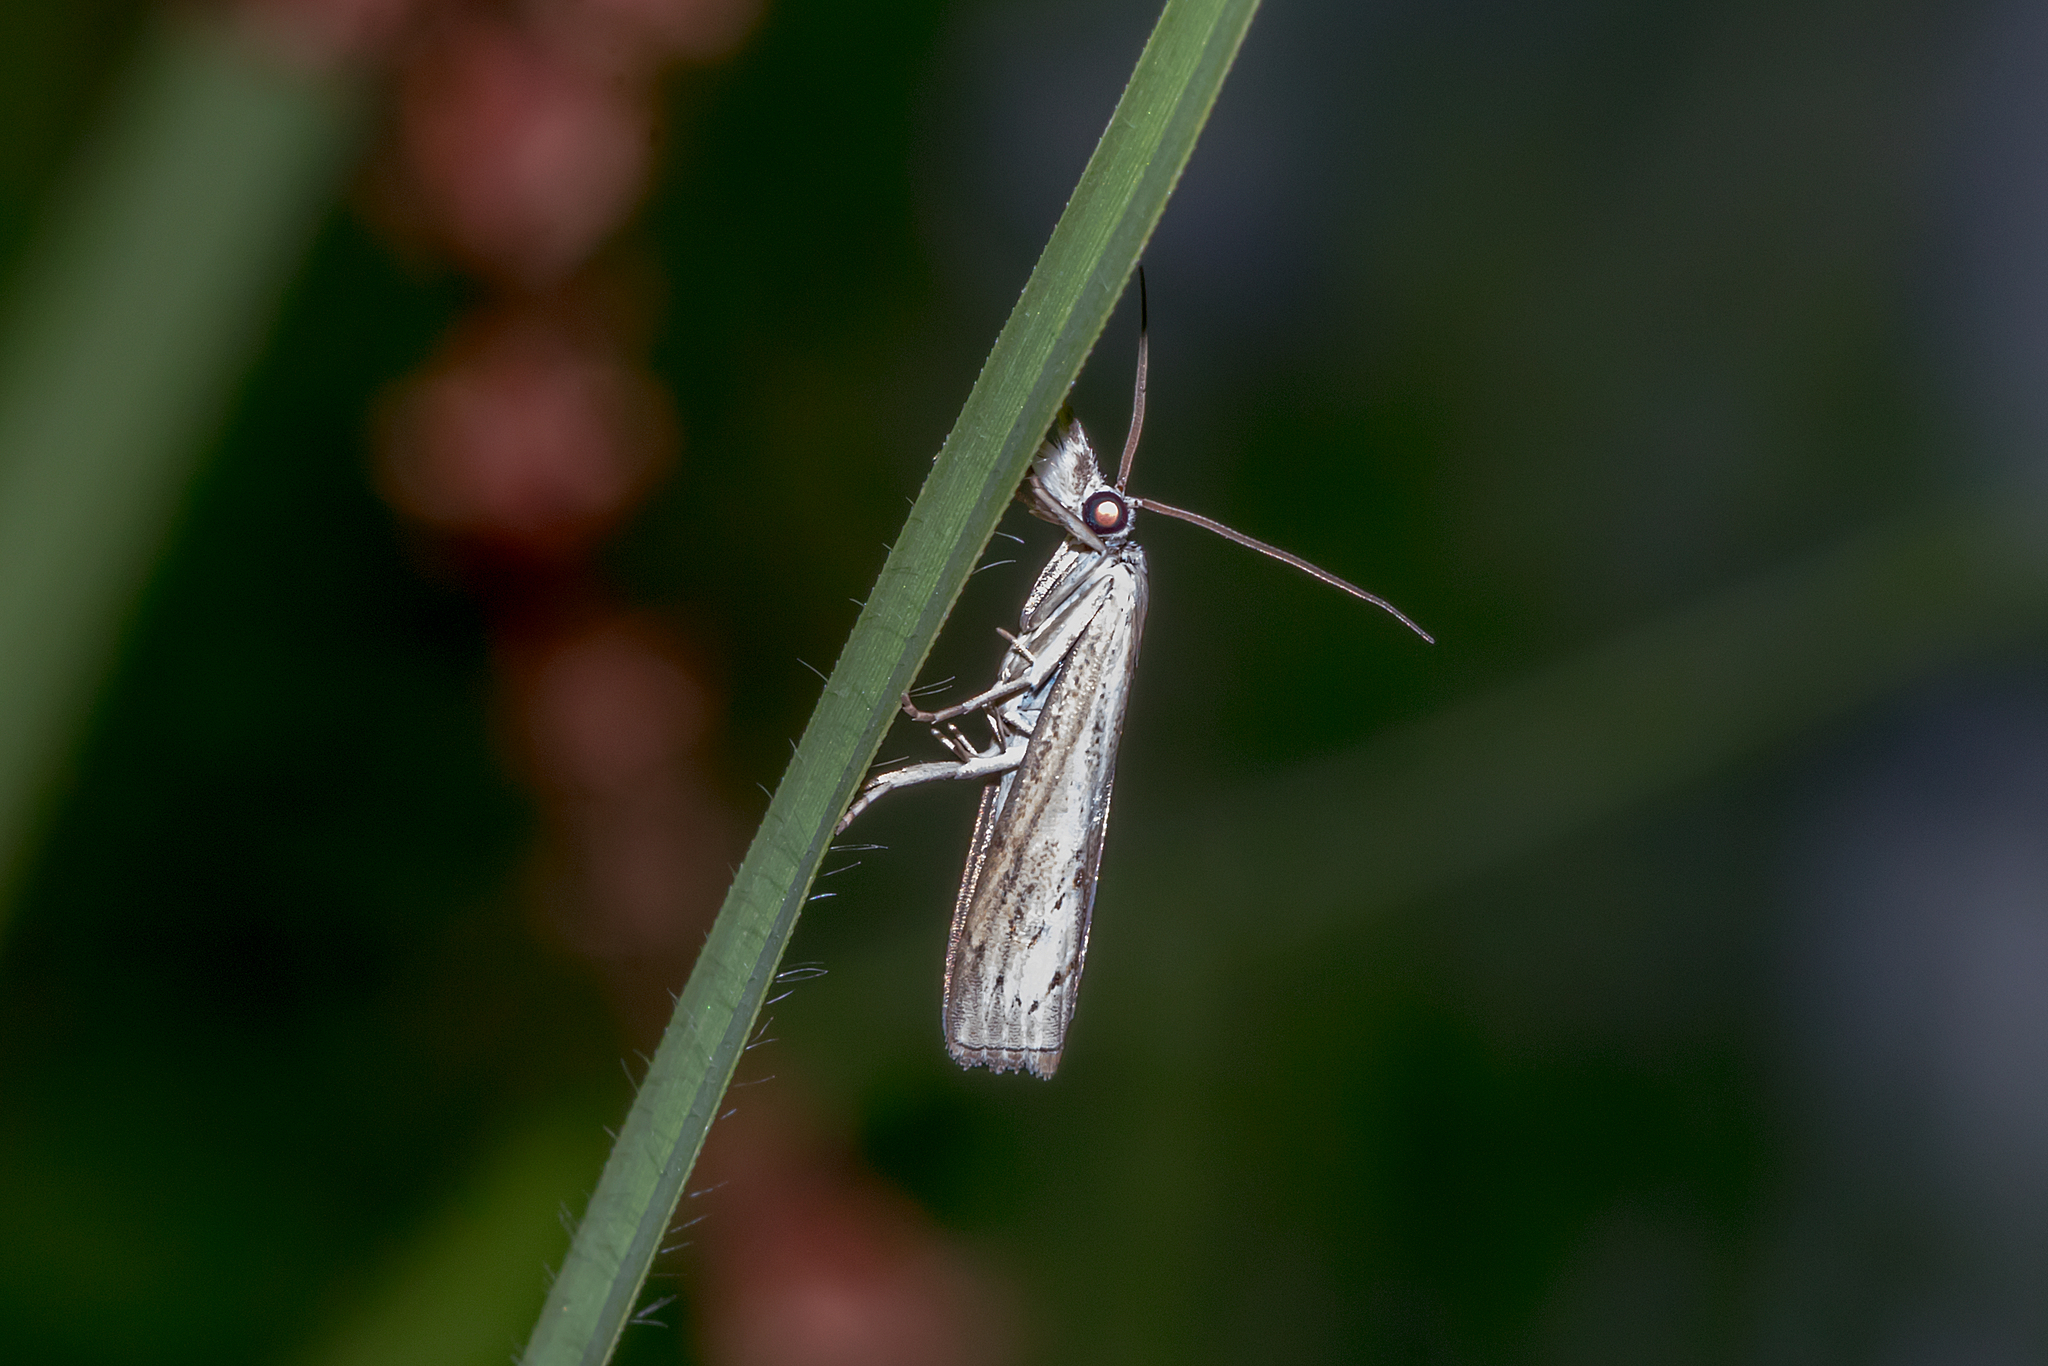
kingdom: Animalia
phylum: Arthropoda
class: Insecta
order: Lepidoptera
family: Crambidae
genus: Culladia
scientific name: Culladia cuneiferellus
